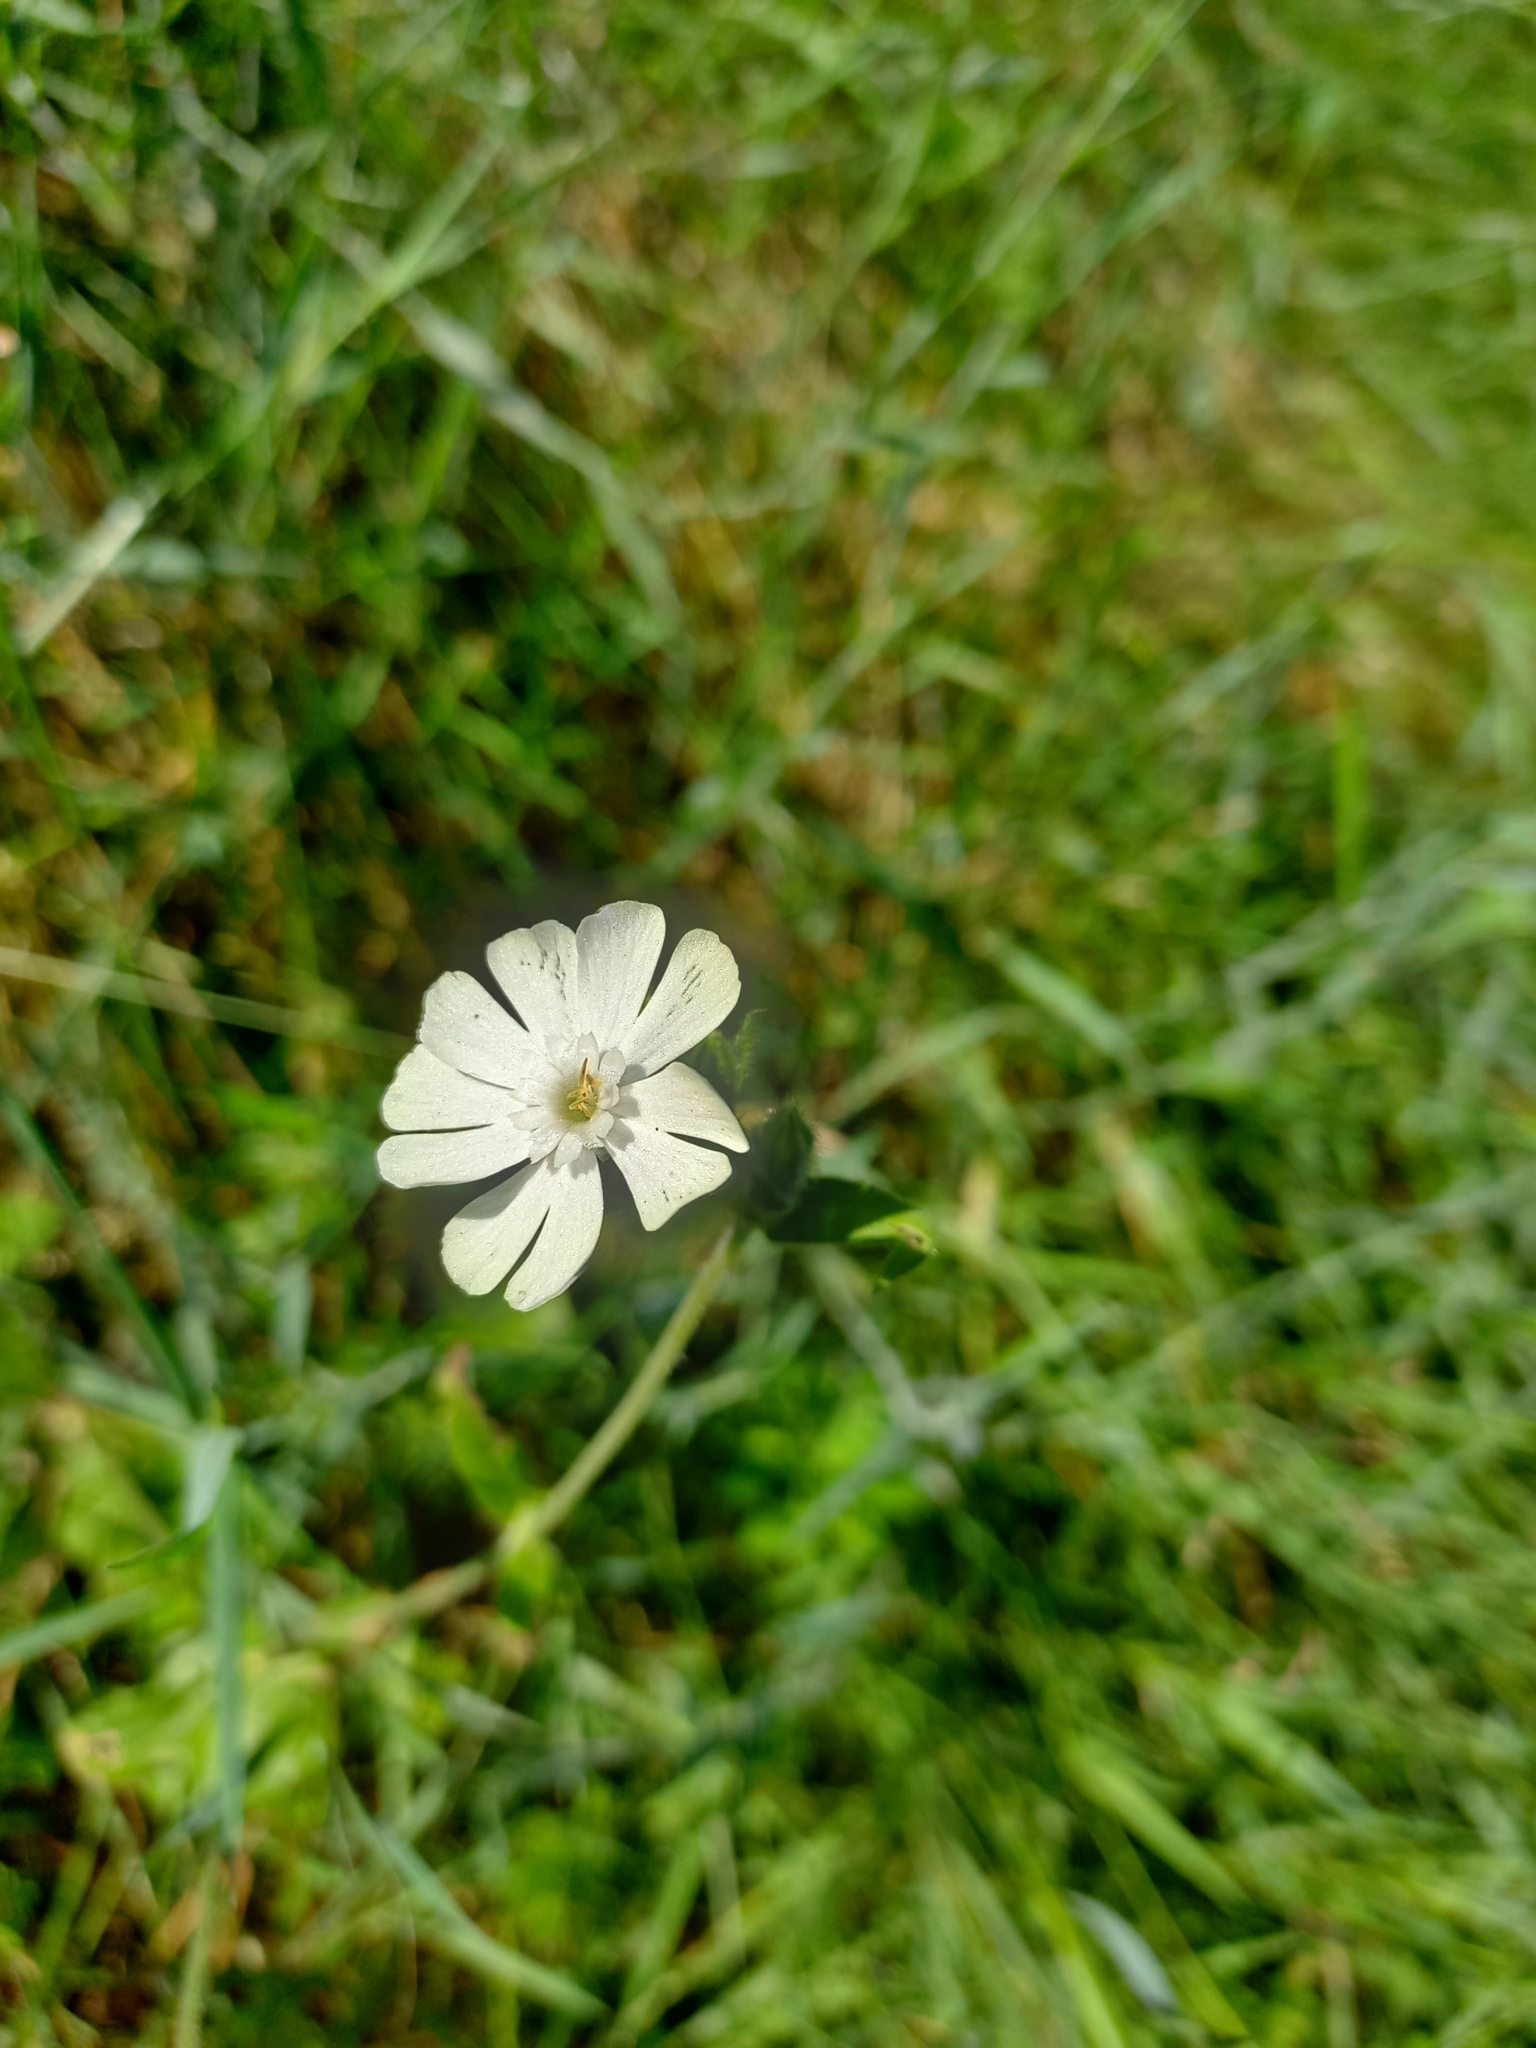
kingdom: Plantae
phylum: Tracheophyta
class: Magnoliopsida
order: Caryophyllales
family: Caryophyllaceae
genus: Silene
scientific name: Silene latifolia
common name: White campion
